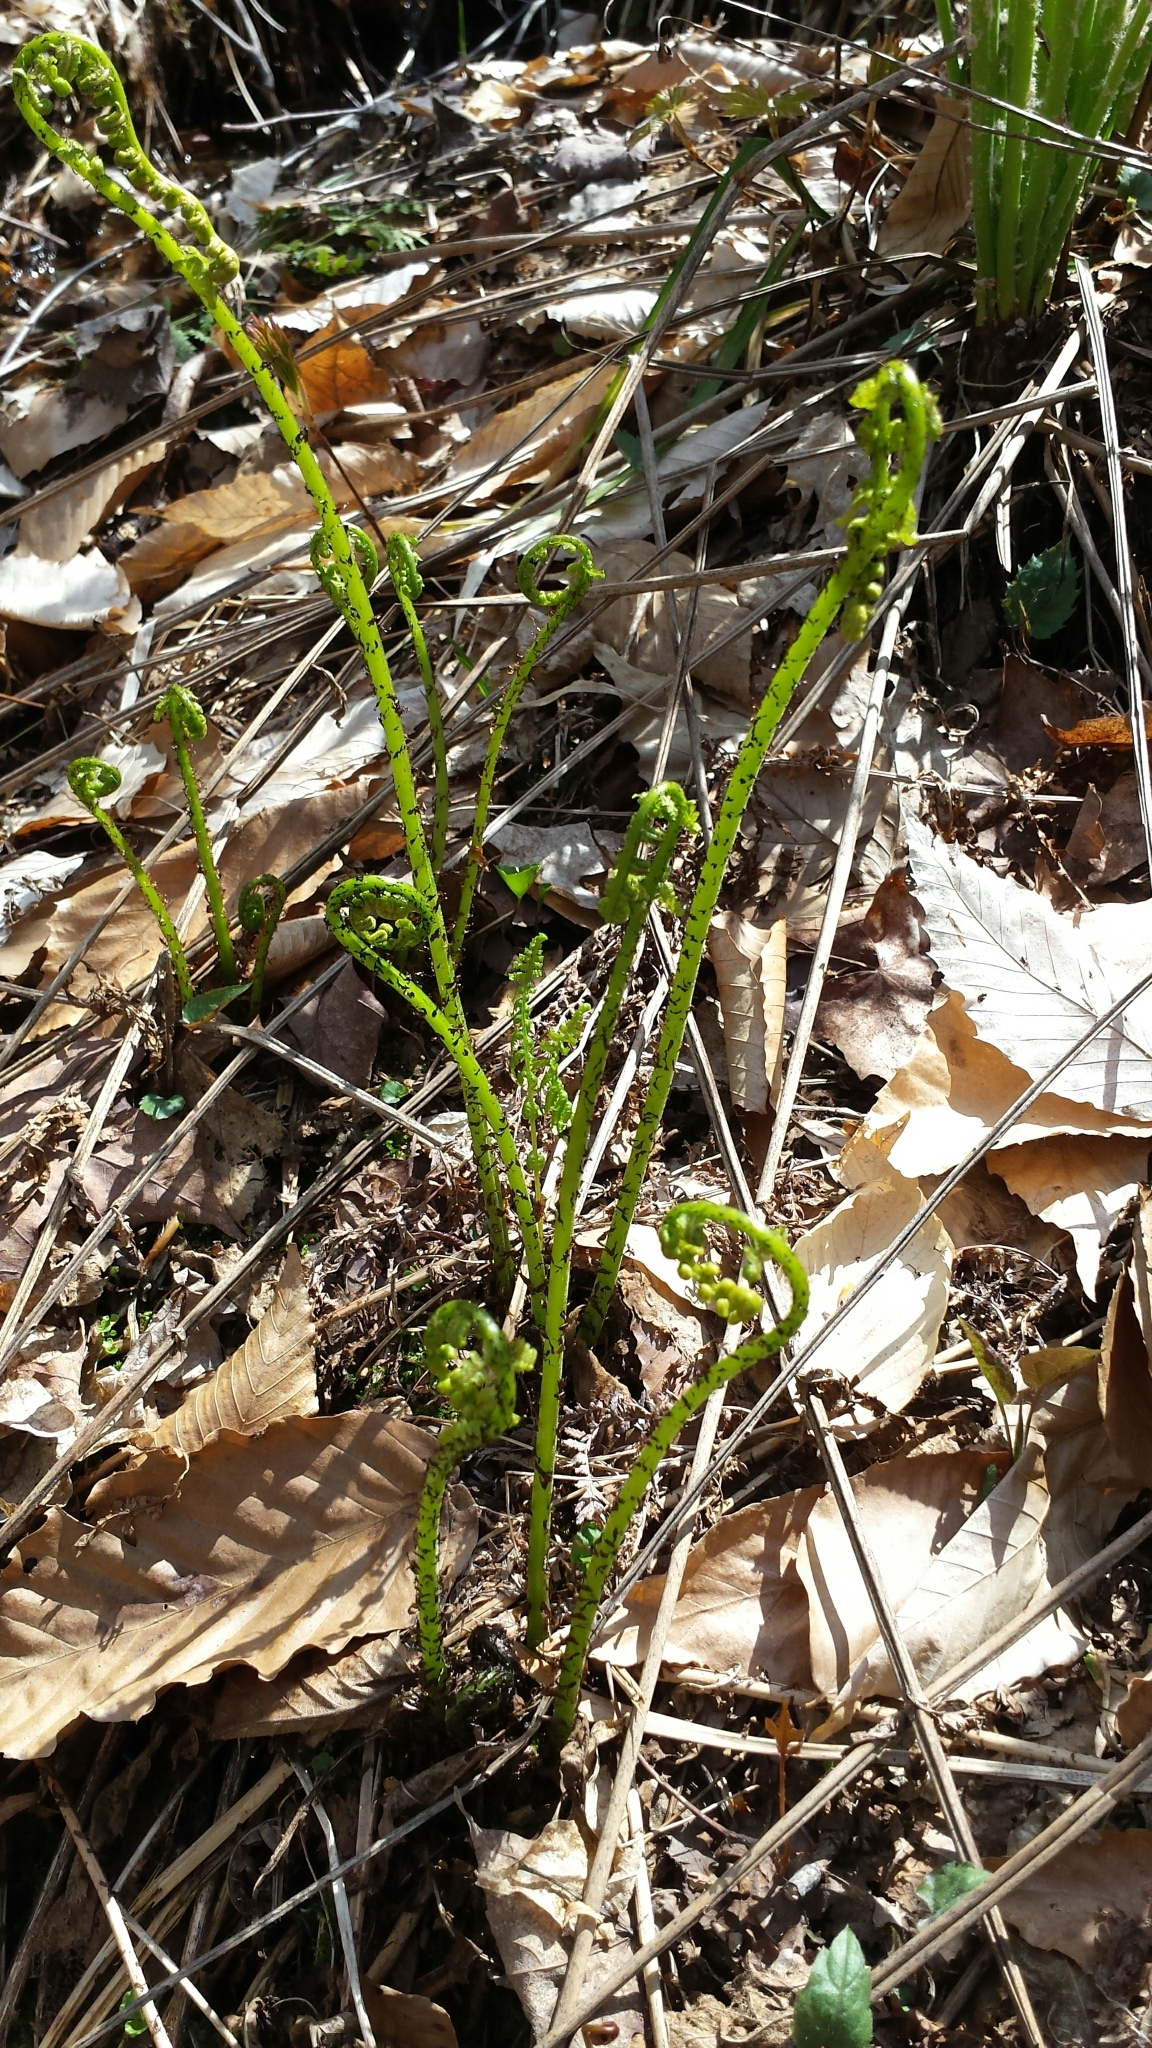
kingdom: Plantae
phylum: Tracheophyta
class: Polypodiopsida
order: Polypodiales
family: Athyriaceae
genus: Athyrium
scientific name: Athyrium angustum
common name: Northern lady fern
